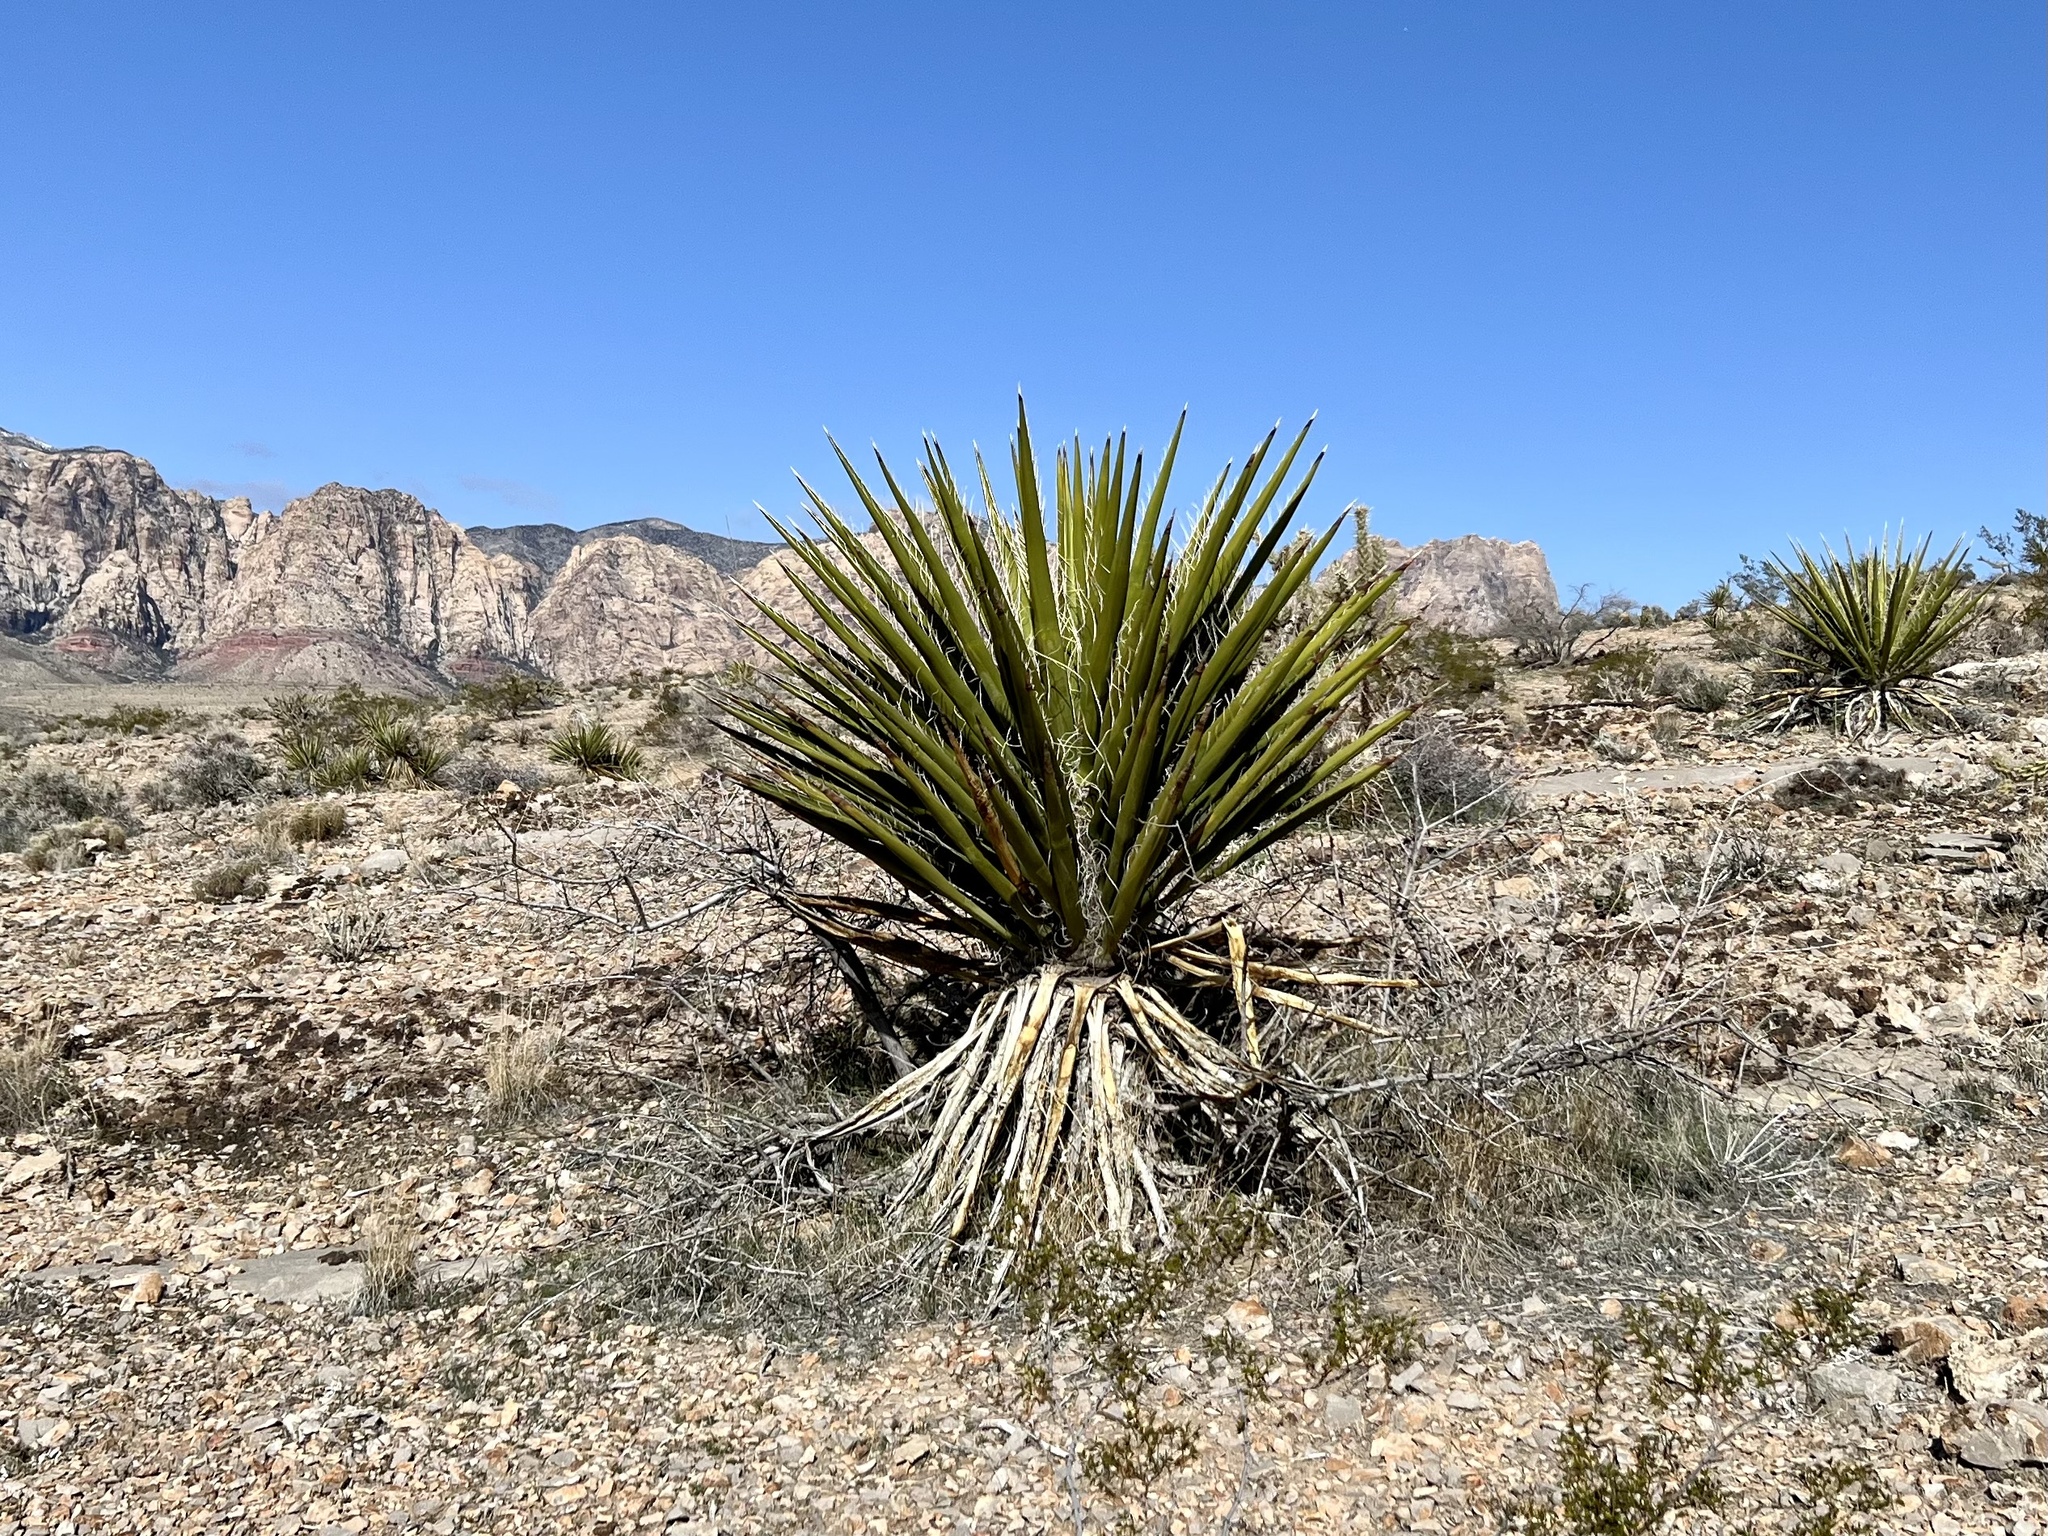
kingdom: Plantae
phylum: Tracheophyta
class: Liliopsida
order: Asparagales
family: Asparagaceae
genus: Yucca
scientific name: Yucca schidigera
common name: Mojave yucca
